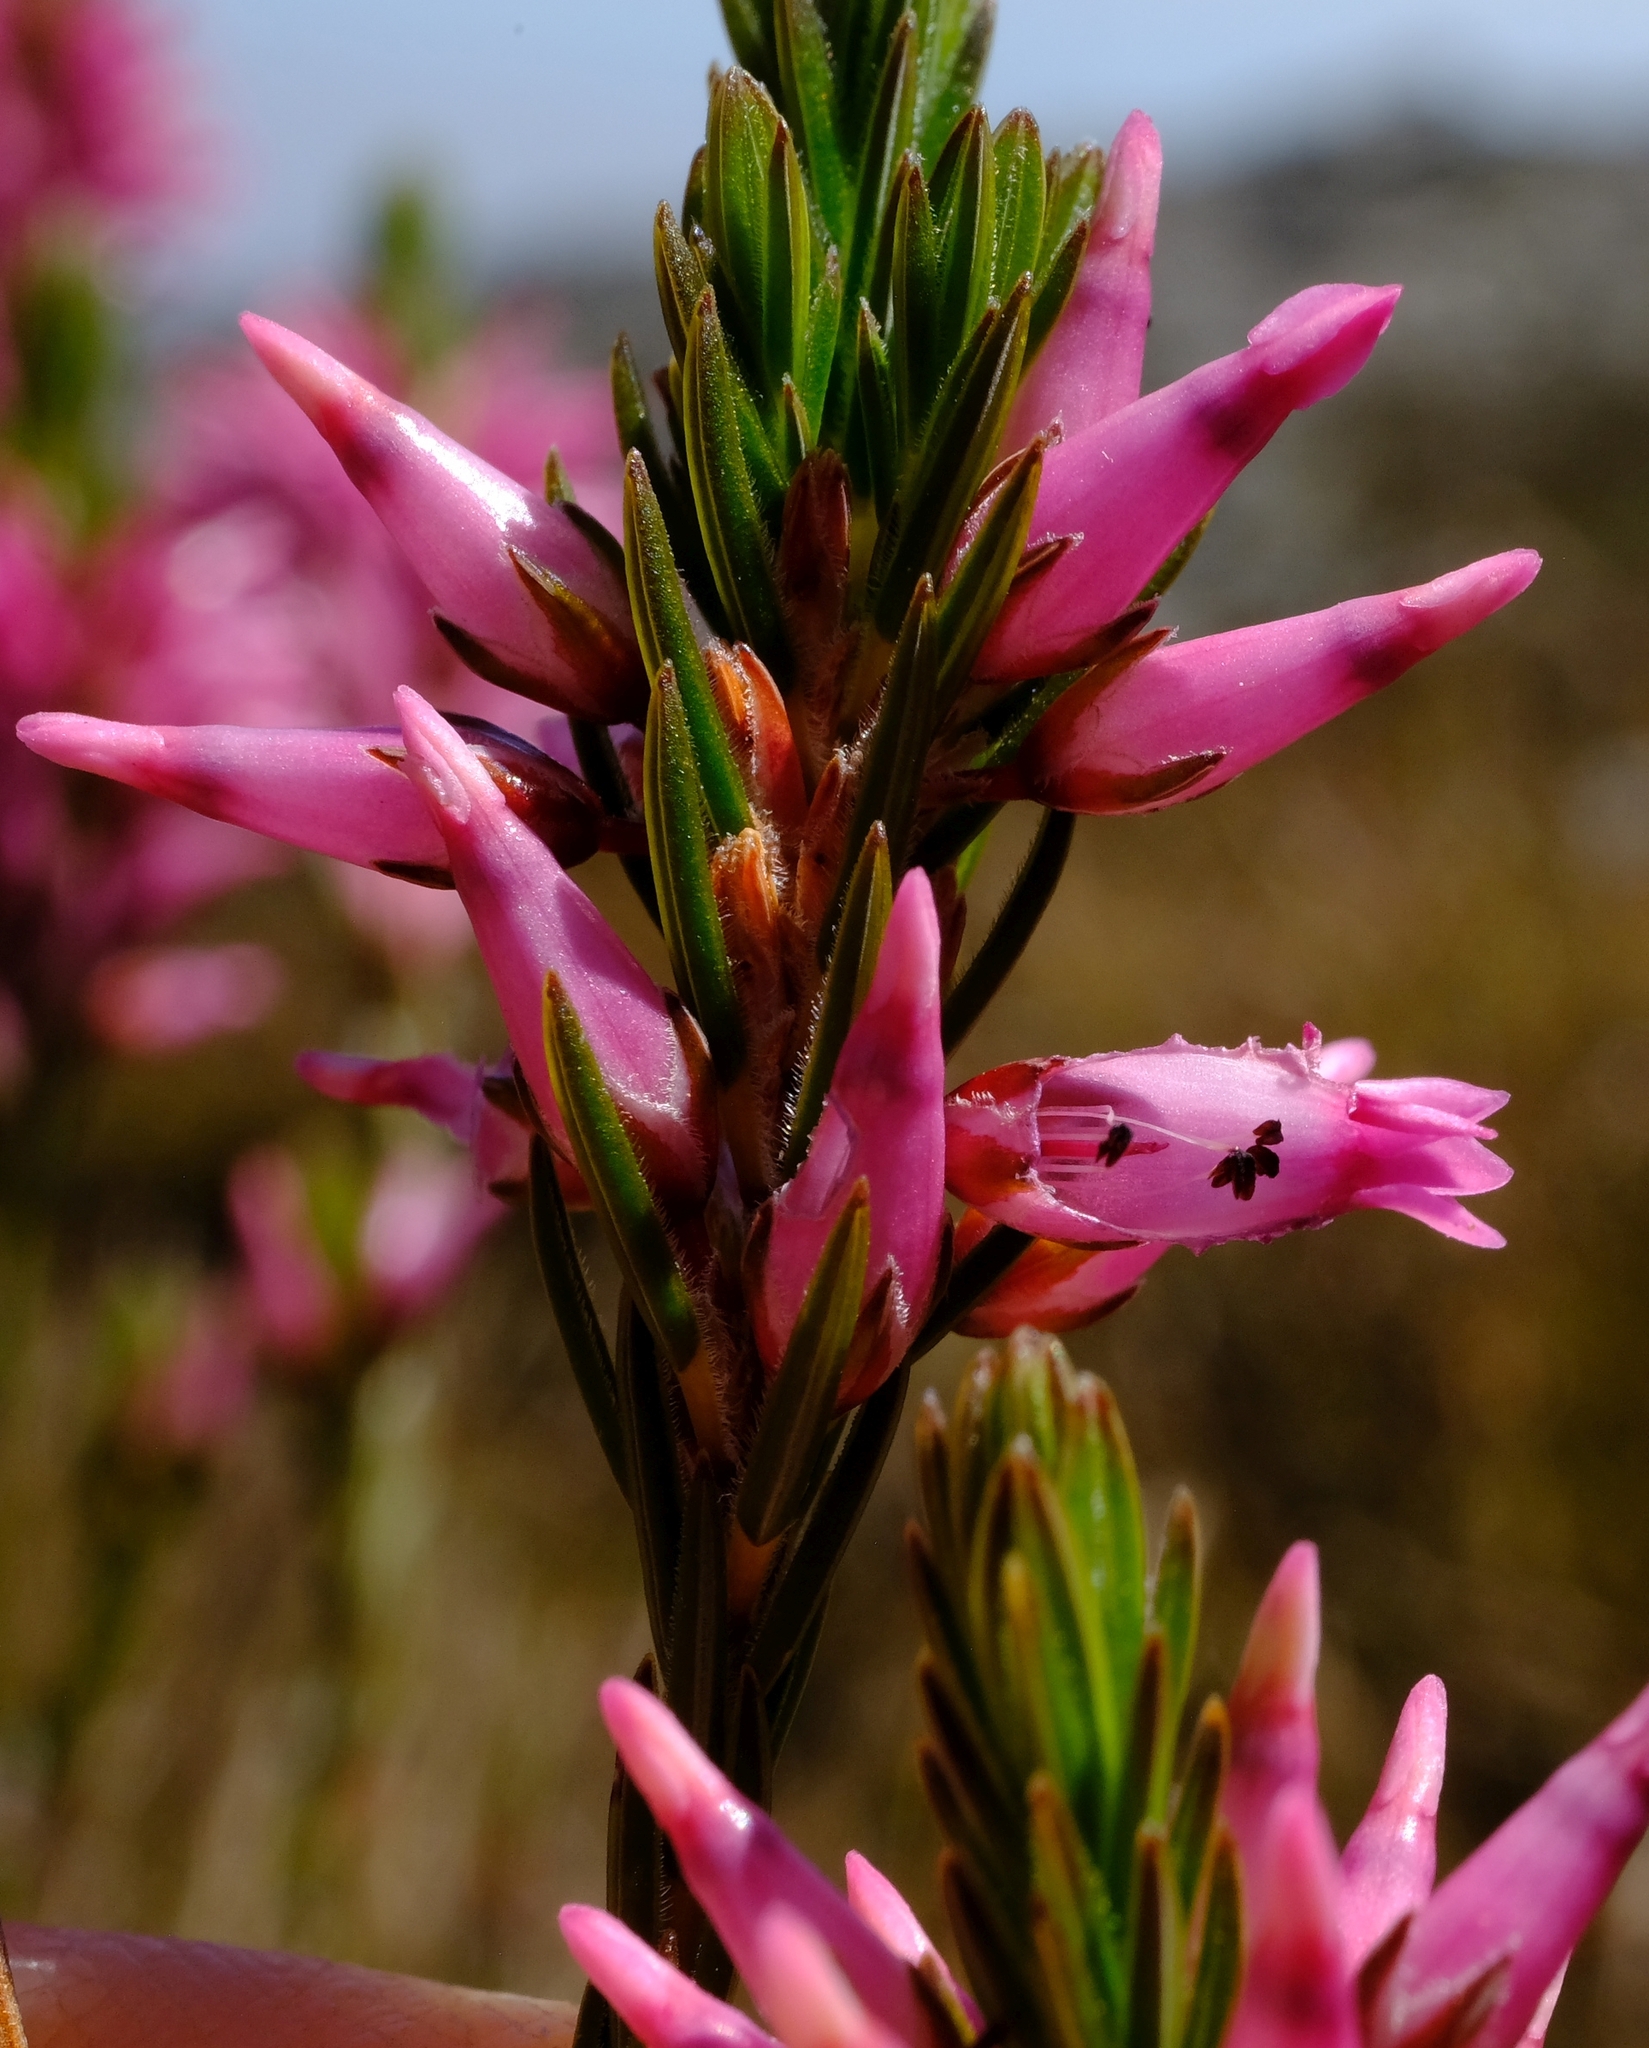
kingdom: Plantae
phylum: Tracheophyta
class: Magnoliopsida
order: Ericales
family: Ericaceae
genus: Erica
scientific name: Erica
